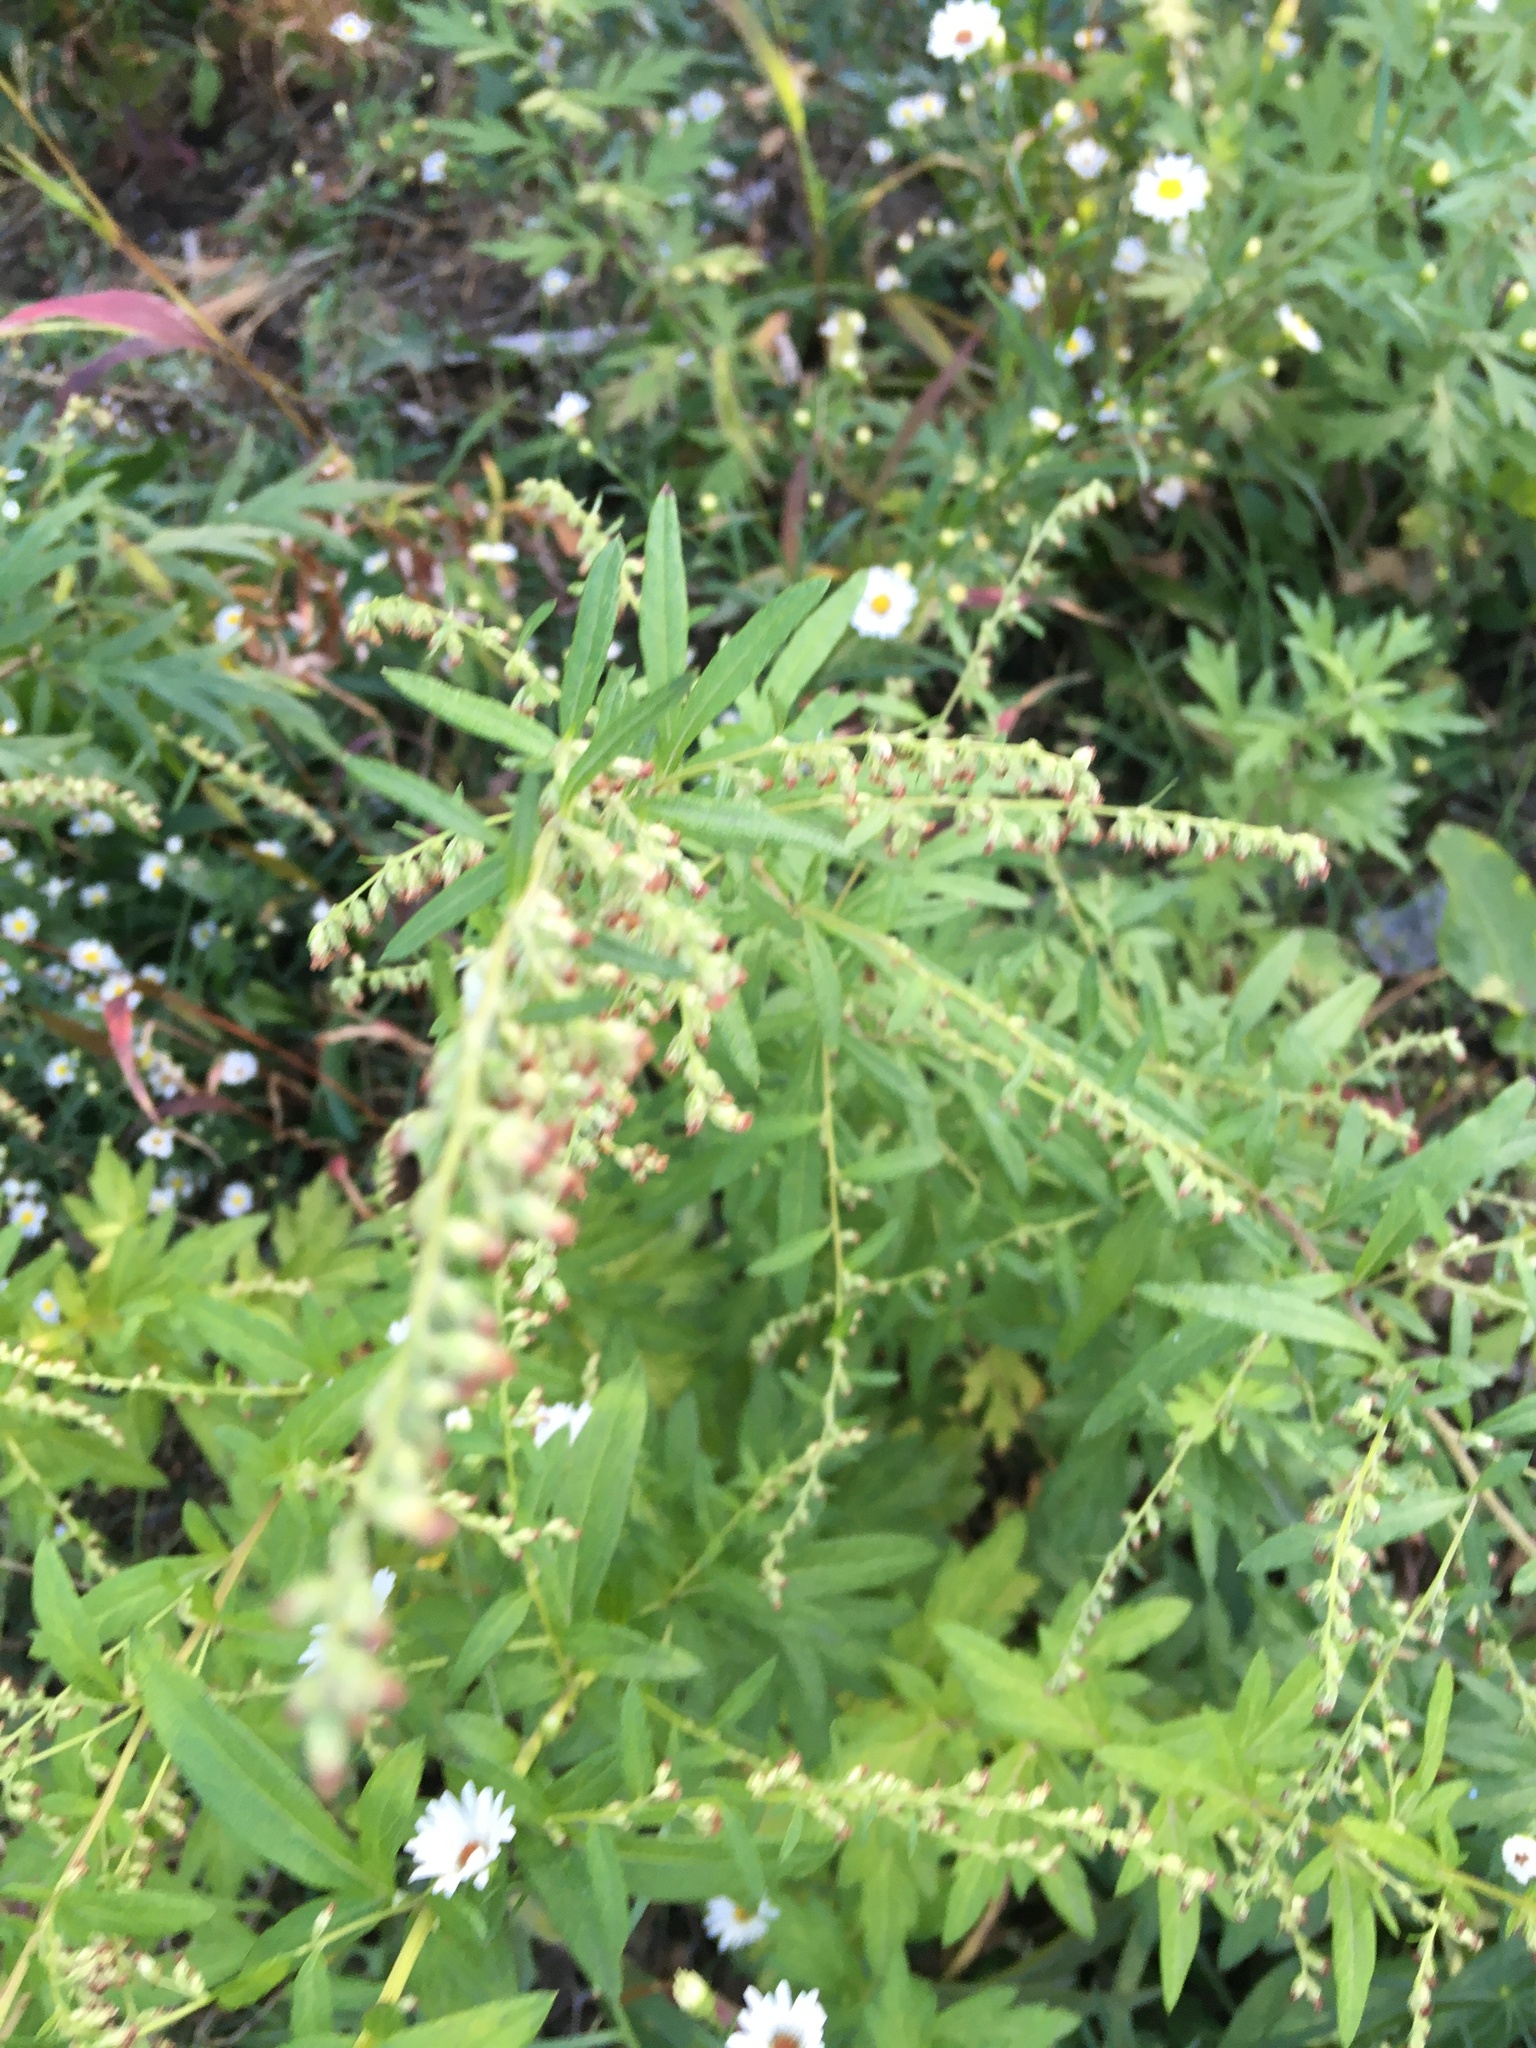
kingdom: Plantae
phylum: Tracheophyta
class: Magnoliopsida
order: Asterales
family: Asteraceae
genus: Artemisia
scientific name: Artemisia vulgaris
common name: Mugwort
